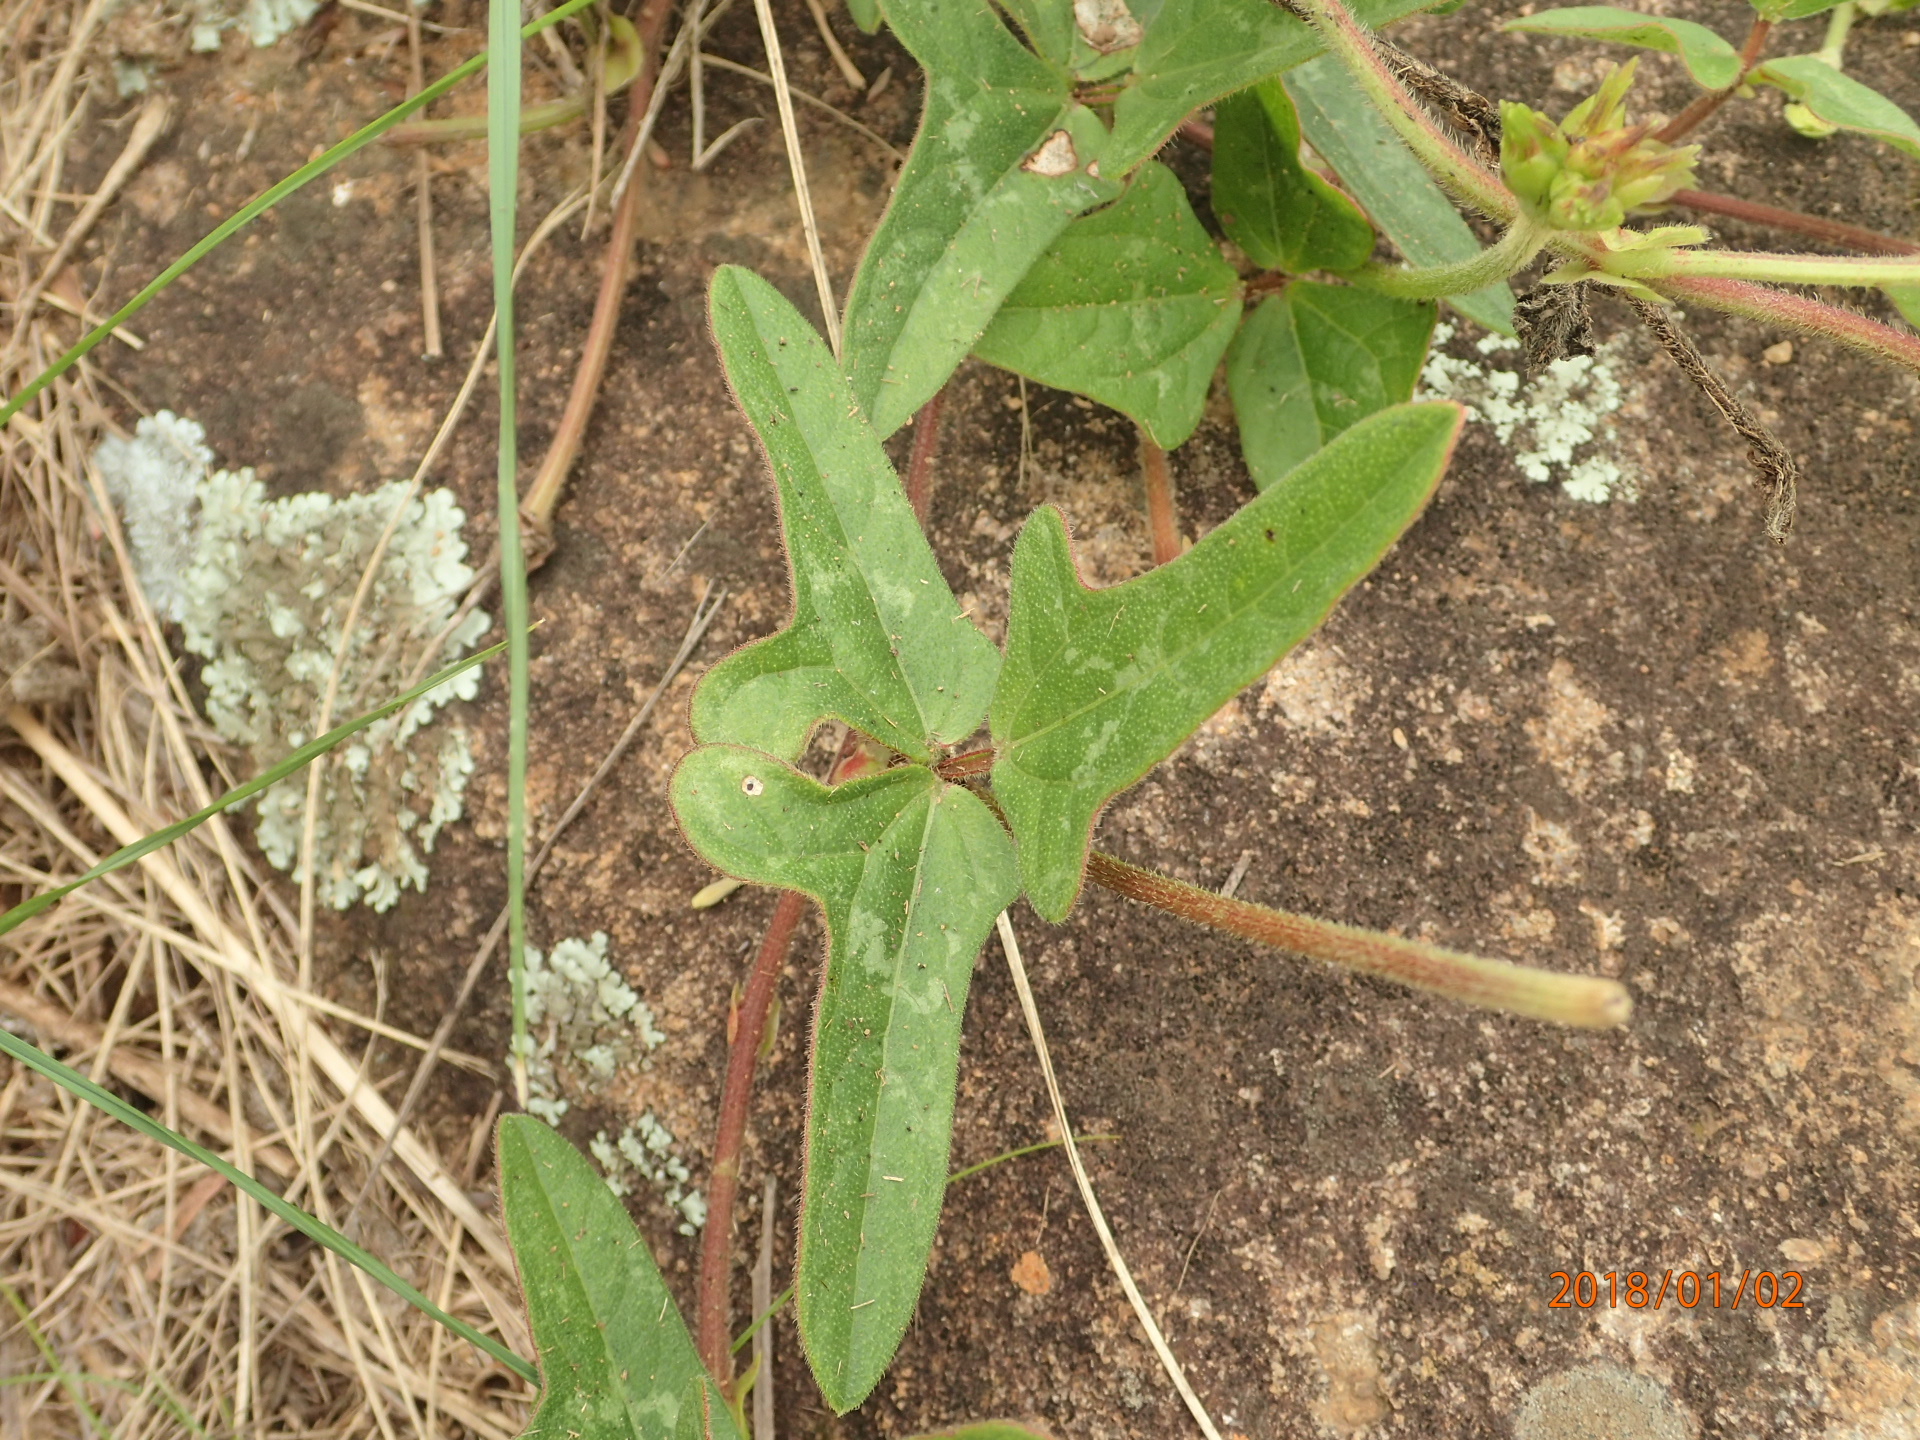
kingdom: Plantae
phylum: Tracheophyta
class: Magnoliopsida
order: Fabales
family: Fabaceae
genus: Vigna
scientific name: Vigna unguiculata
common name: Cowpea
